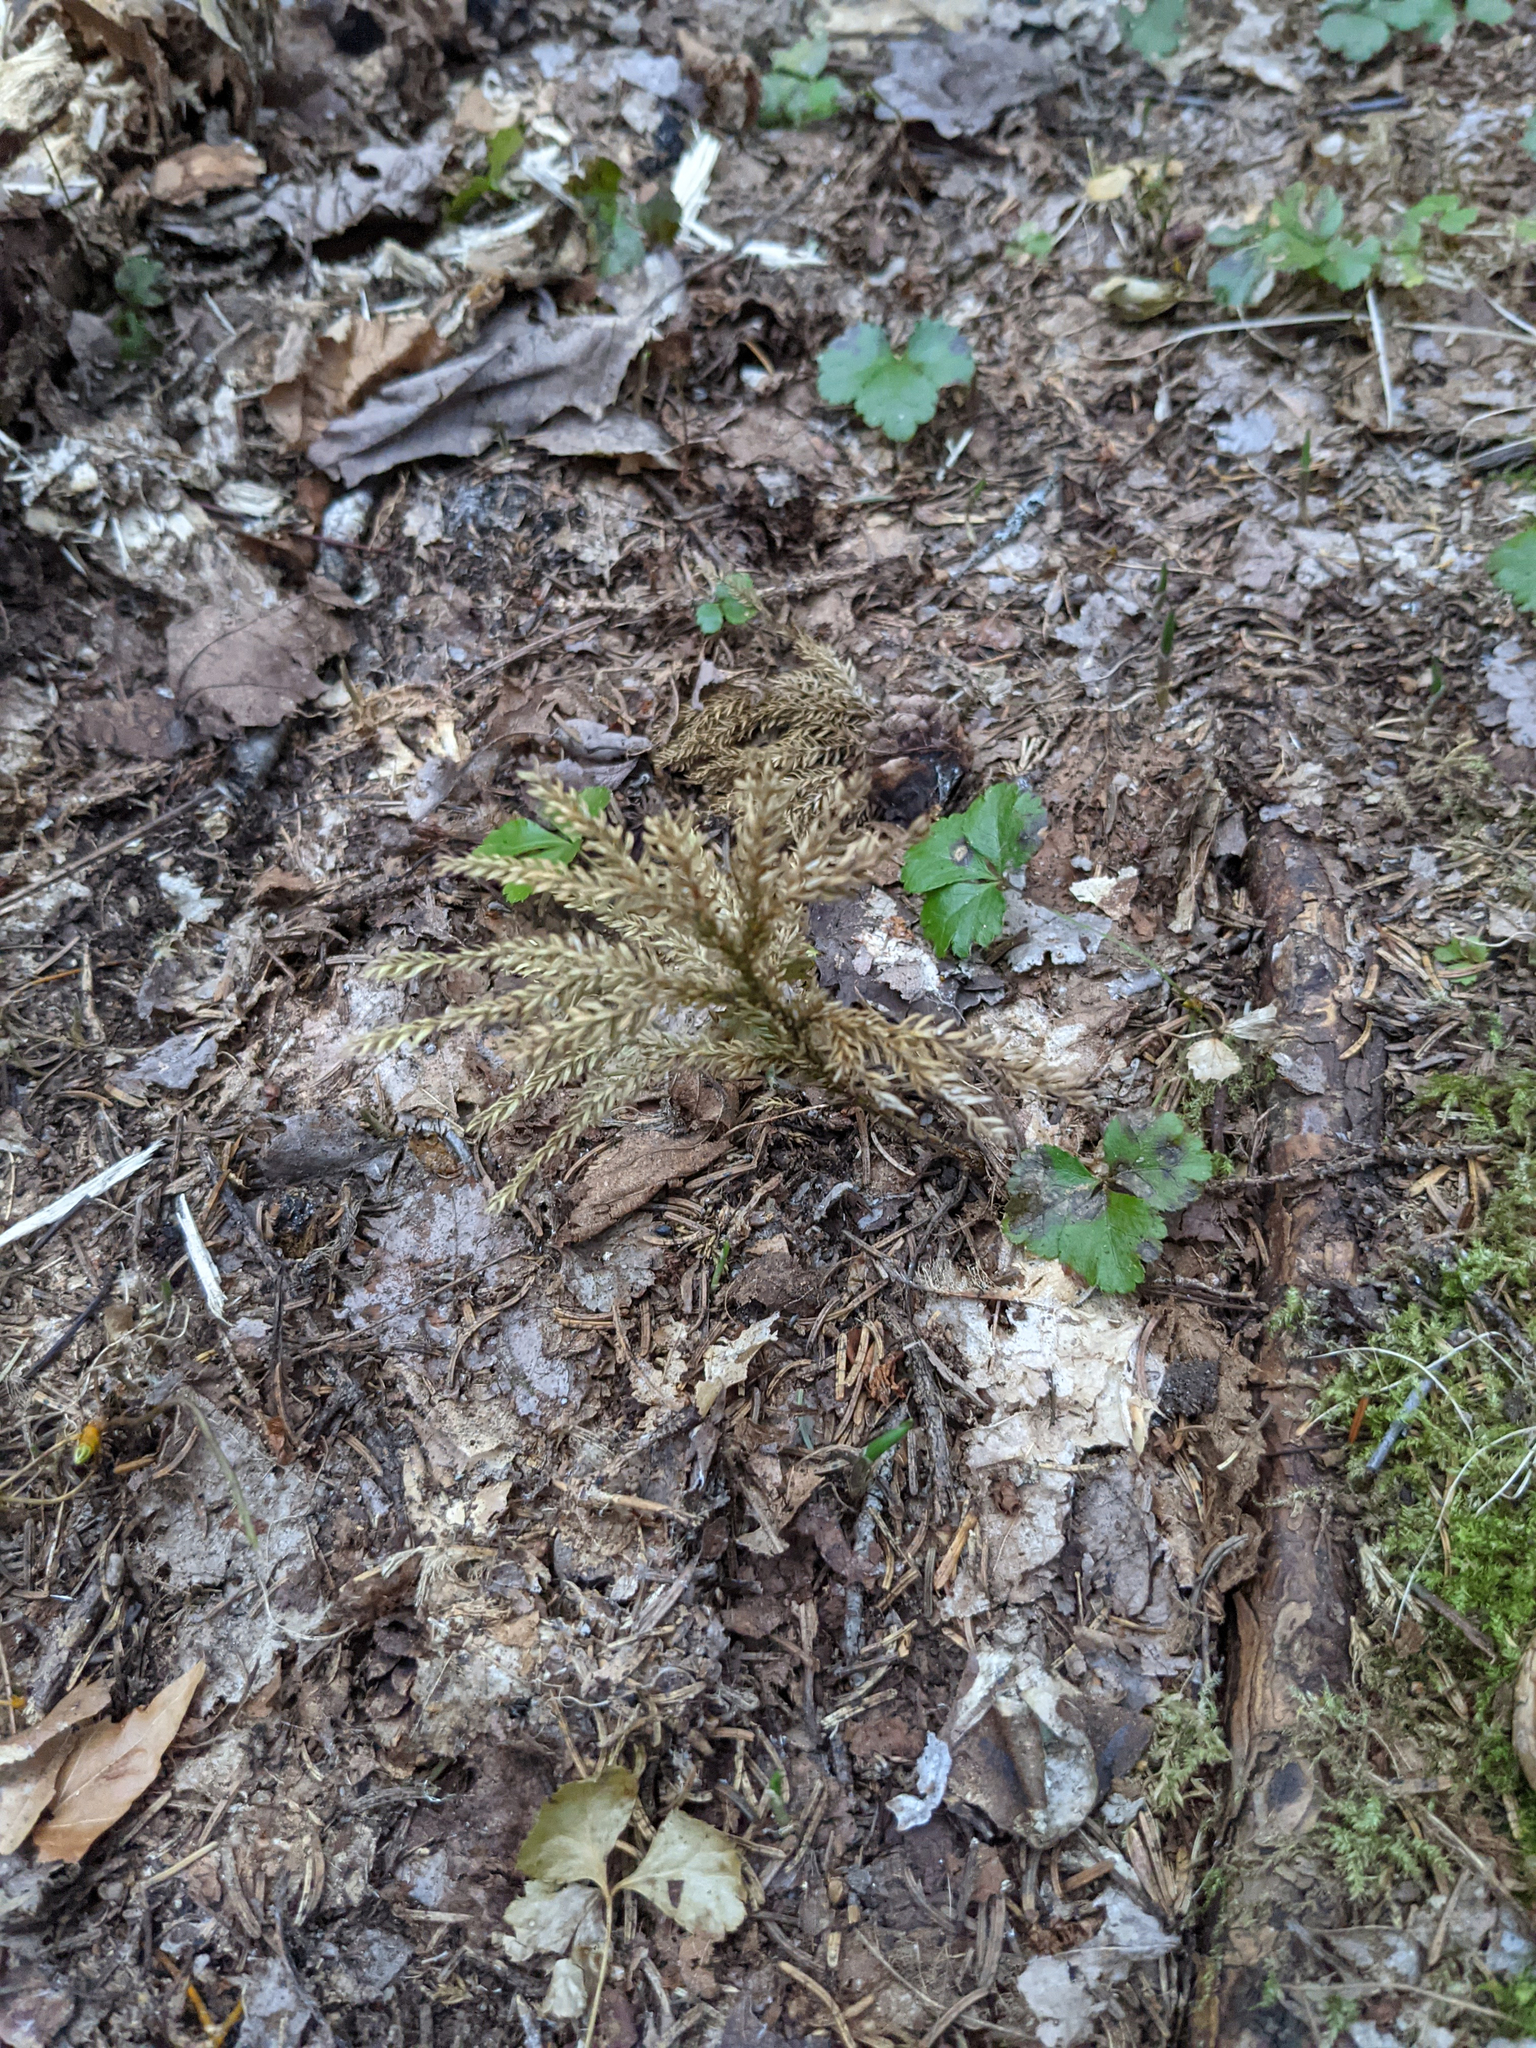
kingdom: Plantae
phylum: Tracheophyta
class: Magnoliopsida
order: Ranunculales
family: Ranunculaceae
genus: Coptis
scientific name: Coptis trifolia
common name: Canker-root
